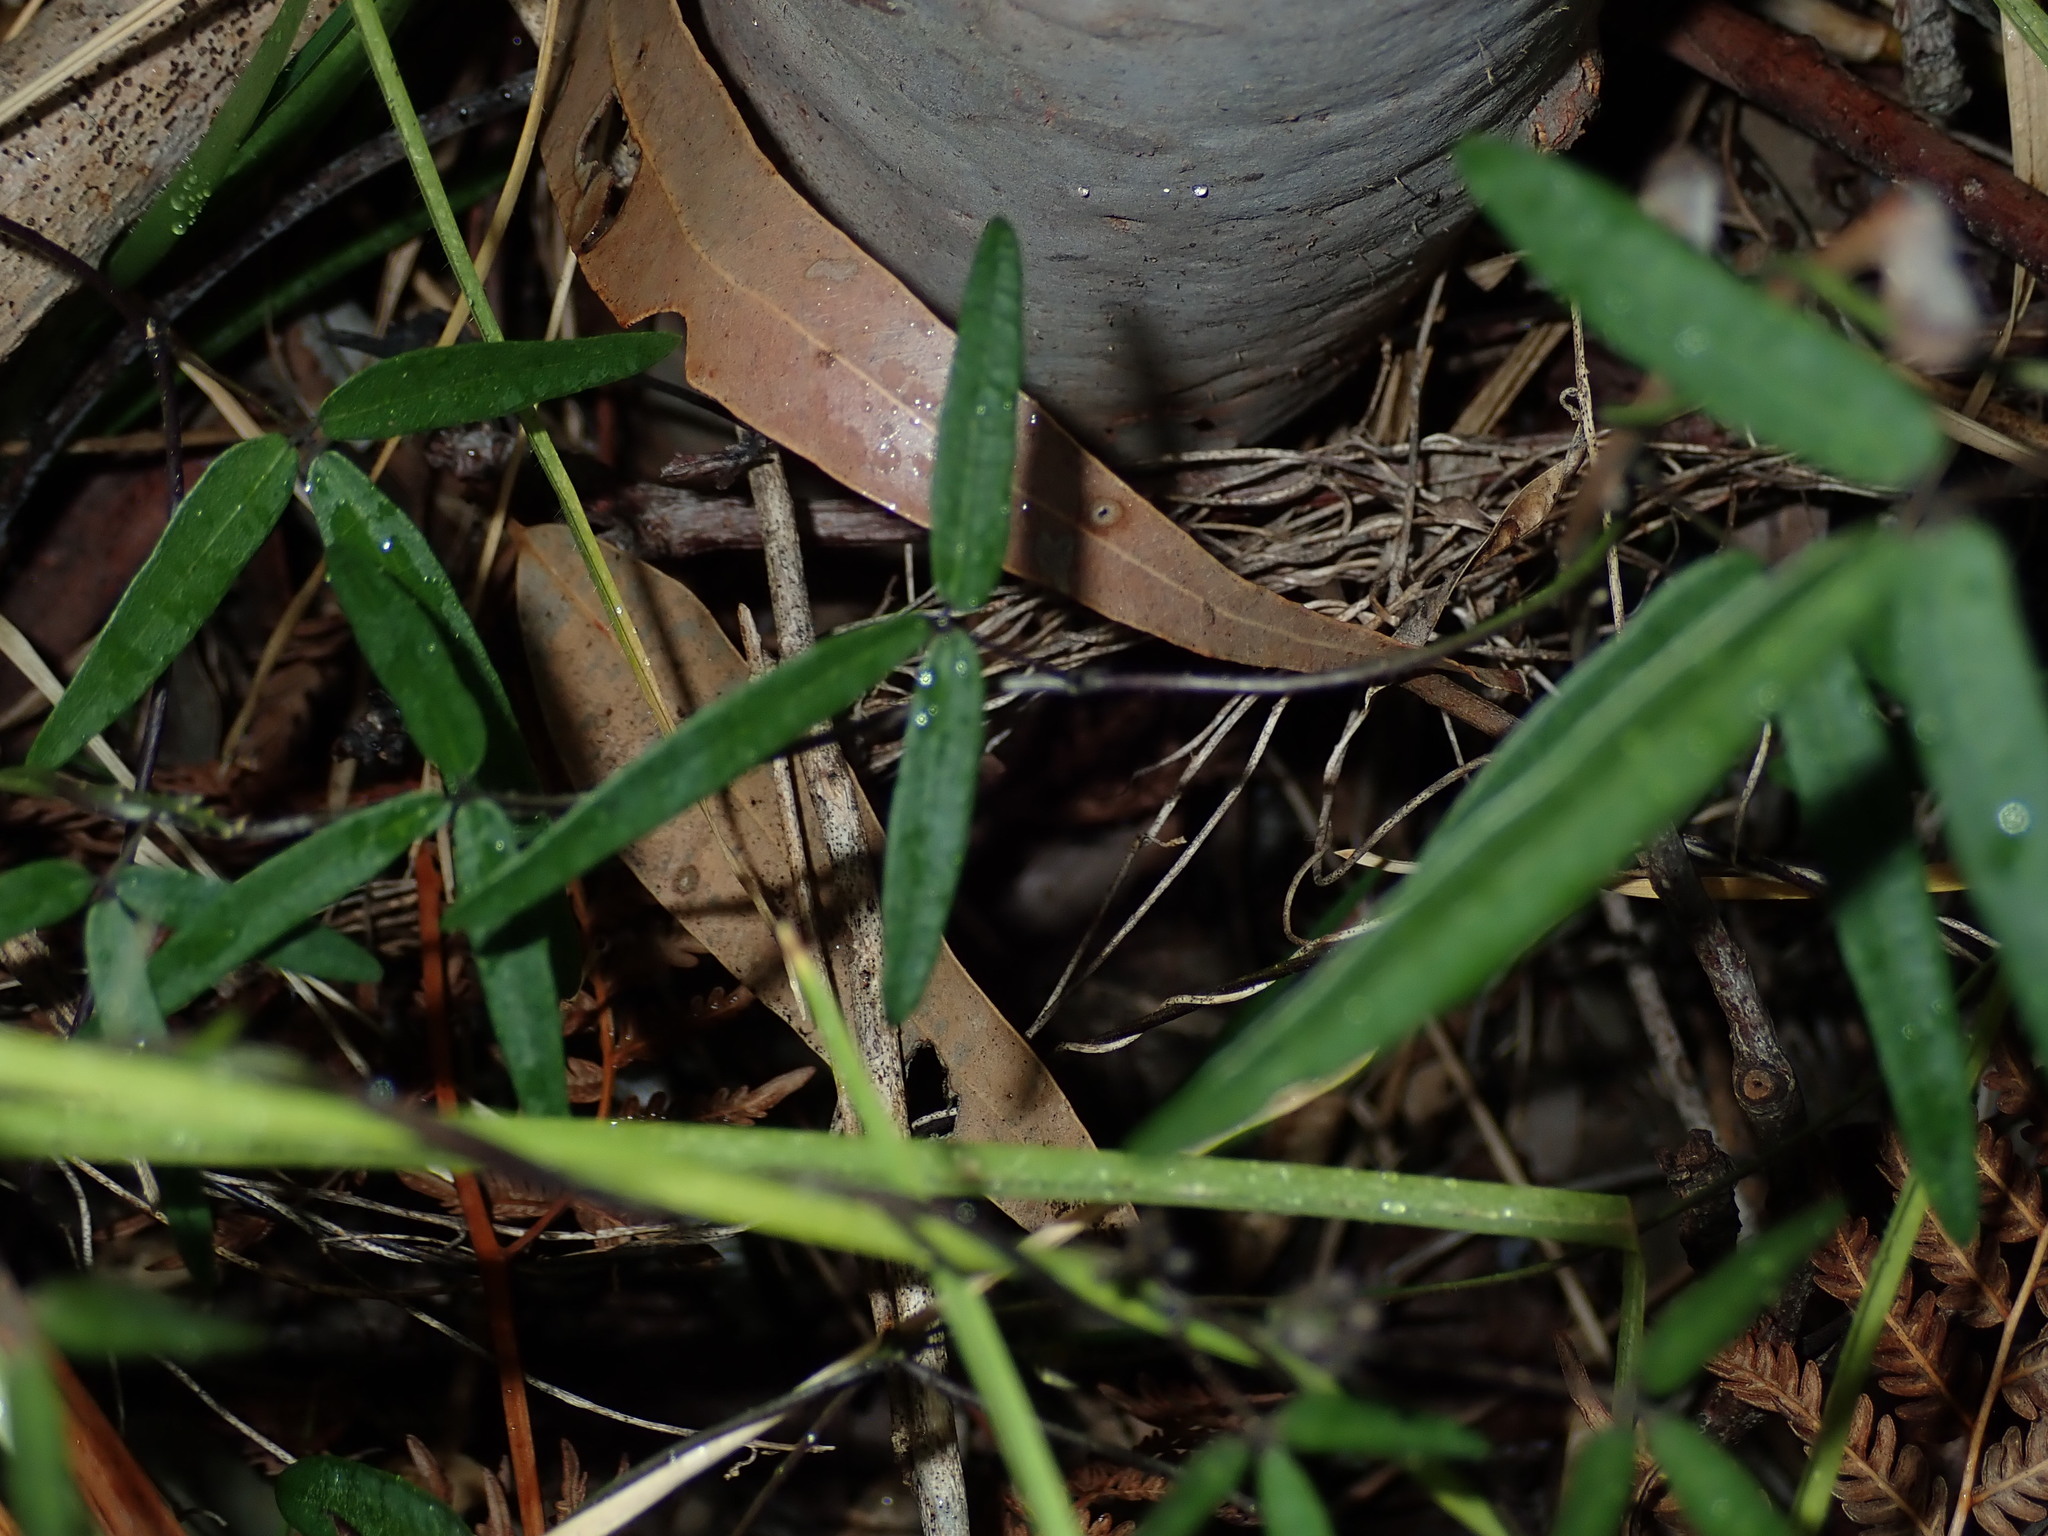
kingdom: Plantae
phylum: Tracheophyta
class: Magnoliopsida
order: Fabales
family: Fabaceae
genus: Glycine
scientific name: Glycine clandestina
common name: Twining glycine
